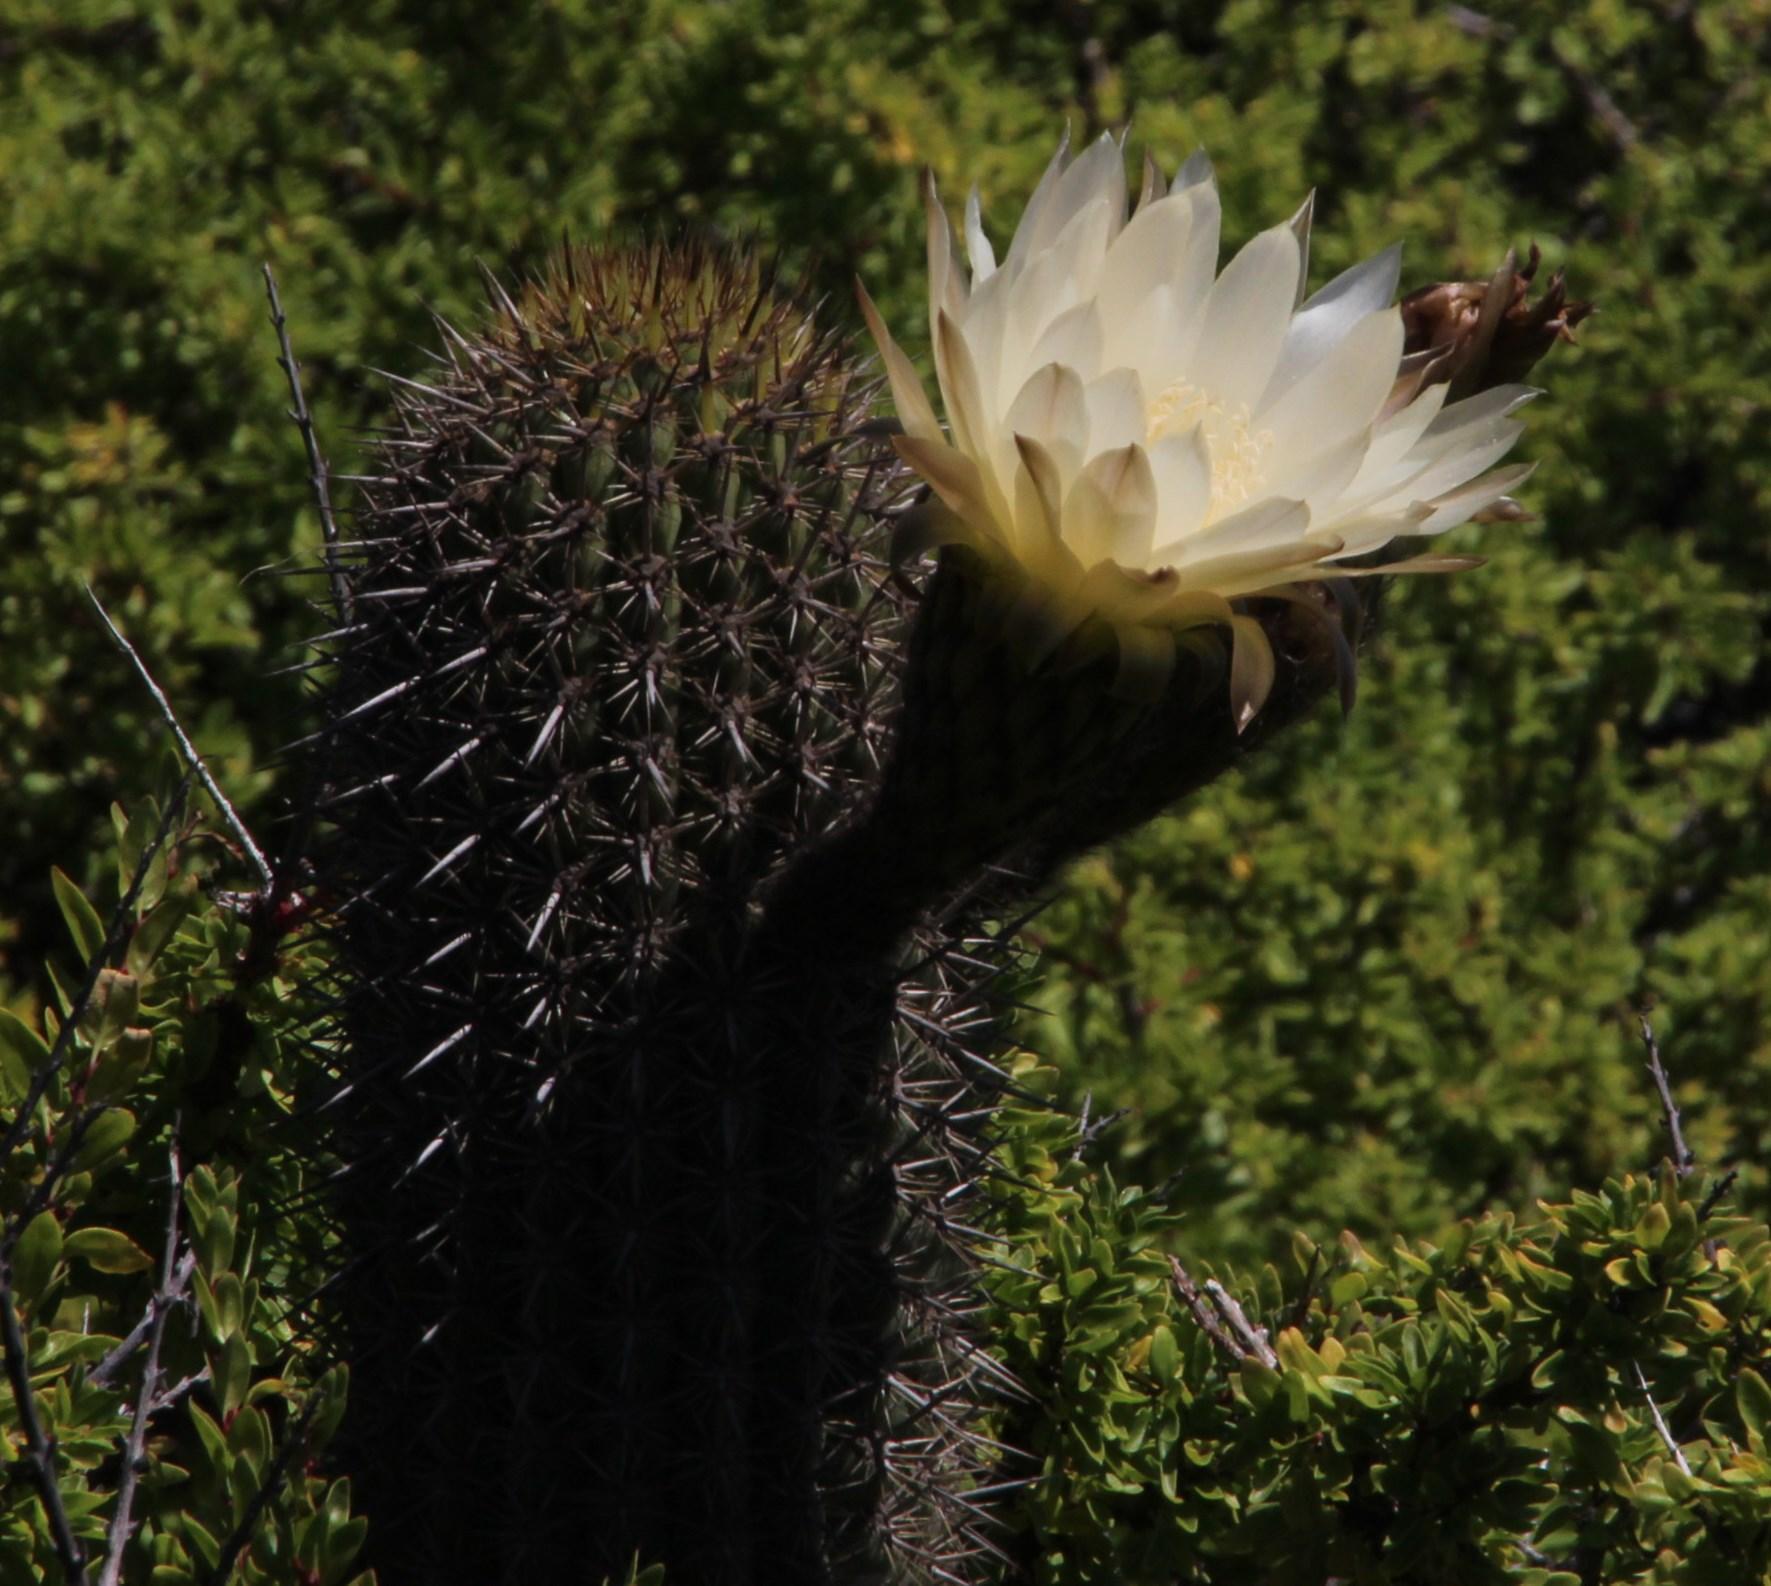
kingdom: Plantae
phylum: Tracheophyta
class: Magnoliopsida
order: Caryophyllales
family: Cactaceae
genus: Leucostele
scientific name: Leucostele litoralis
